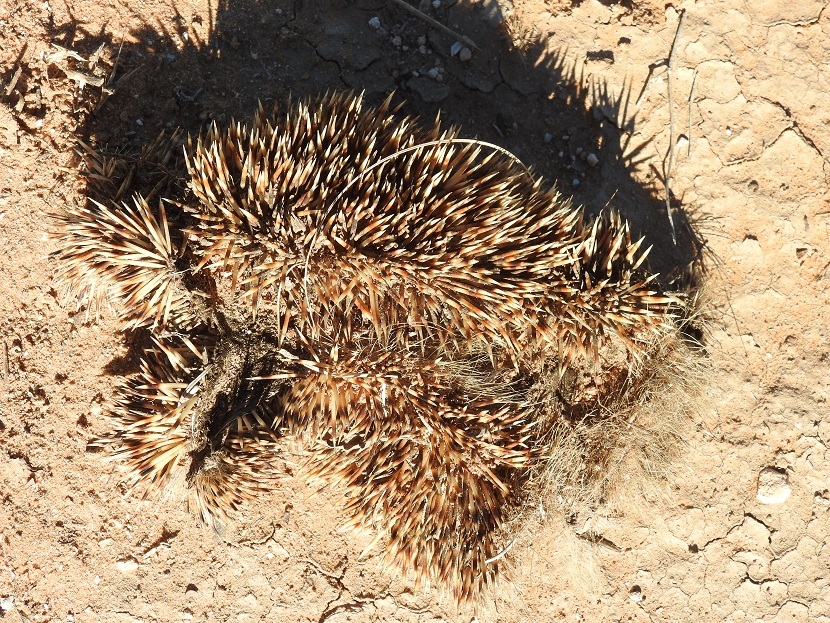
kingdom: Animalia
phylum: Chordata
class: Mammalia
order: Erinaceomorpha
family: Erinaceidae
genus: Atelerix
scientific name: Atelerix algirus
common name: North african hedgehog
